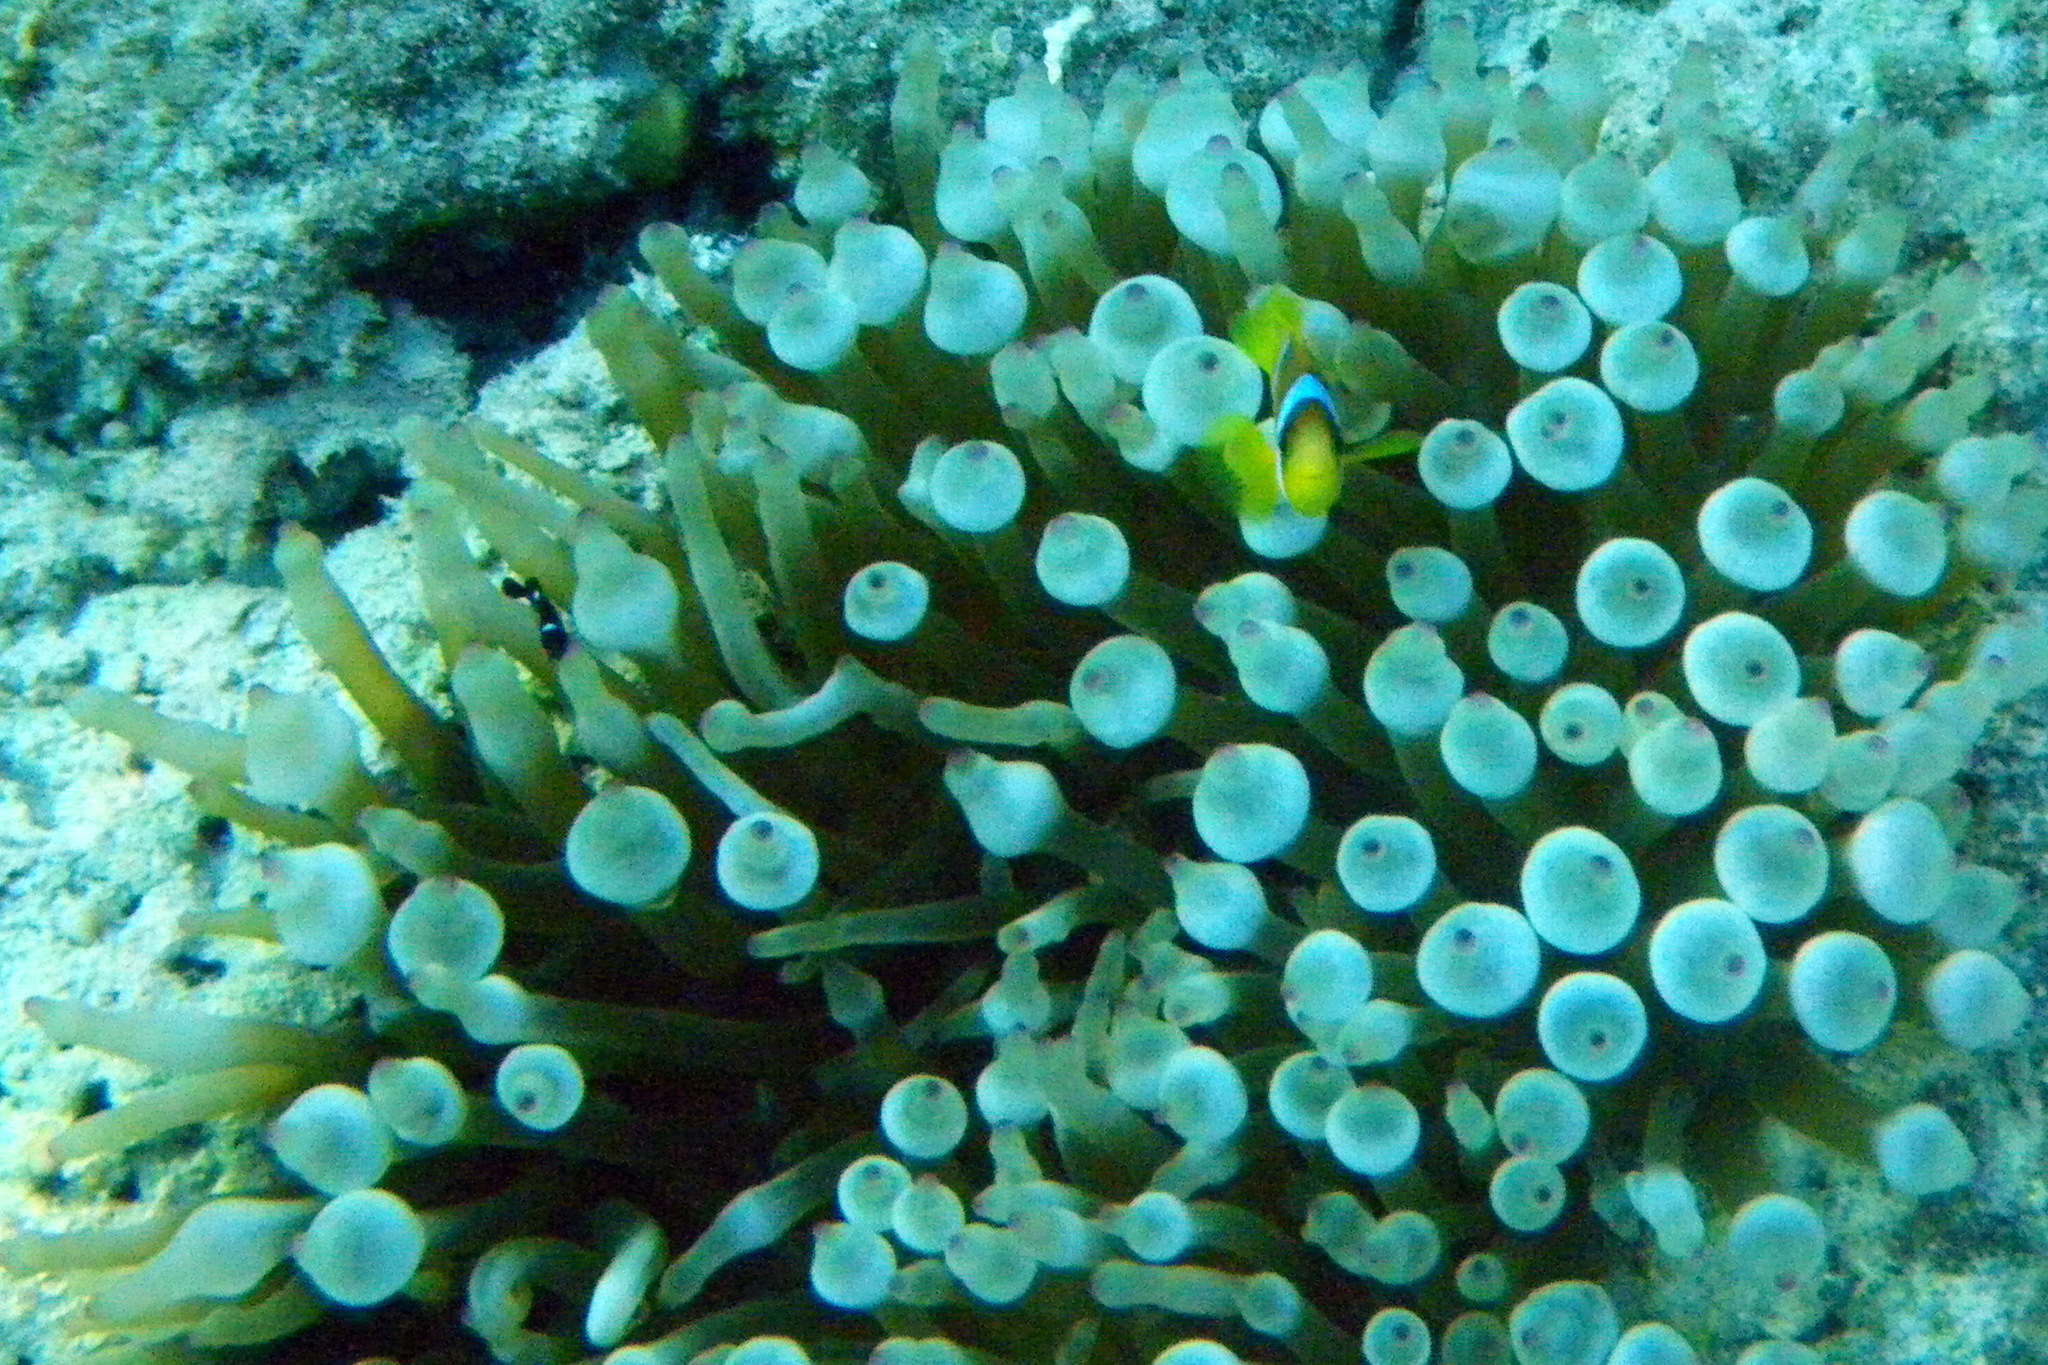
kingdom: Animalia
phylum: Chordata
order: Perciformes
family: Pomacentridae
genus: Amphiprion
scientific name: Amphiprion bicinctus
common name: Two-banded anemonefish
